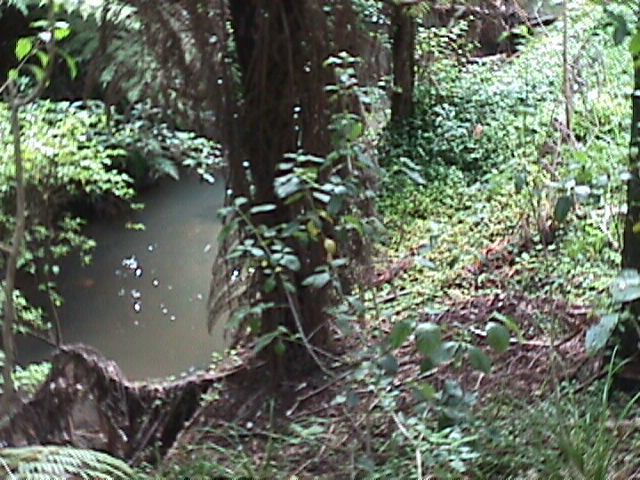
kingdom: Plantae
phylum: Tracheophyta
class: Liliopsida
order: Commelinales
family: Commelinaceae
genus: Tradescantia
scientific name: Tradescantia fluminensis
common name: Wandering-jew
